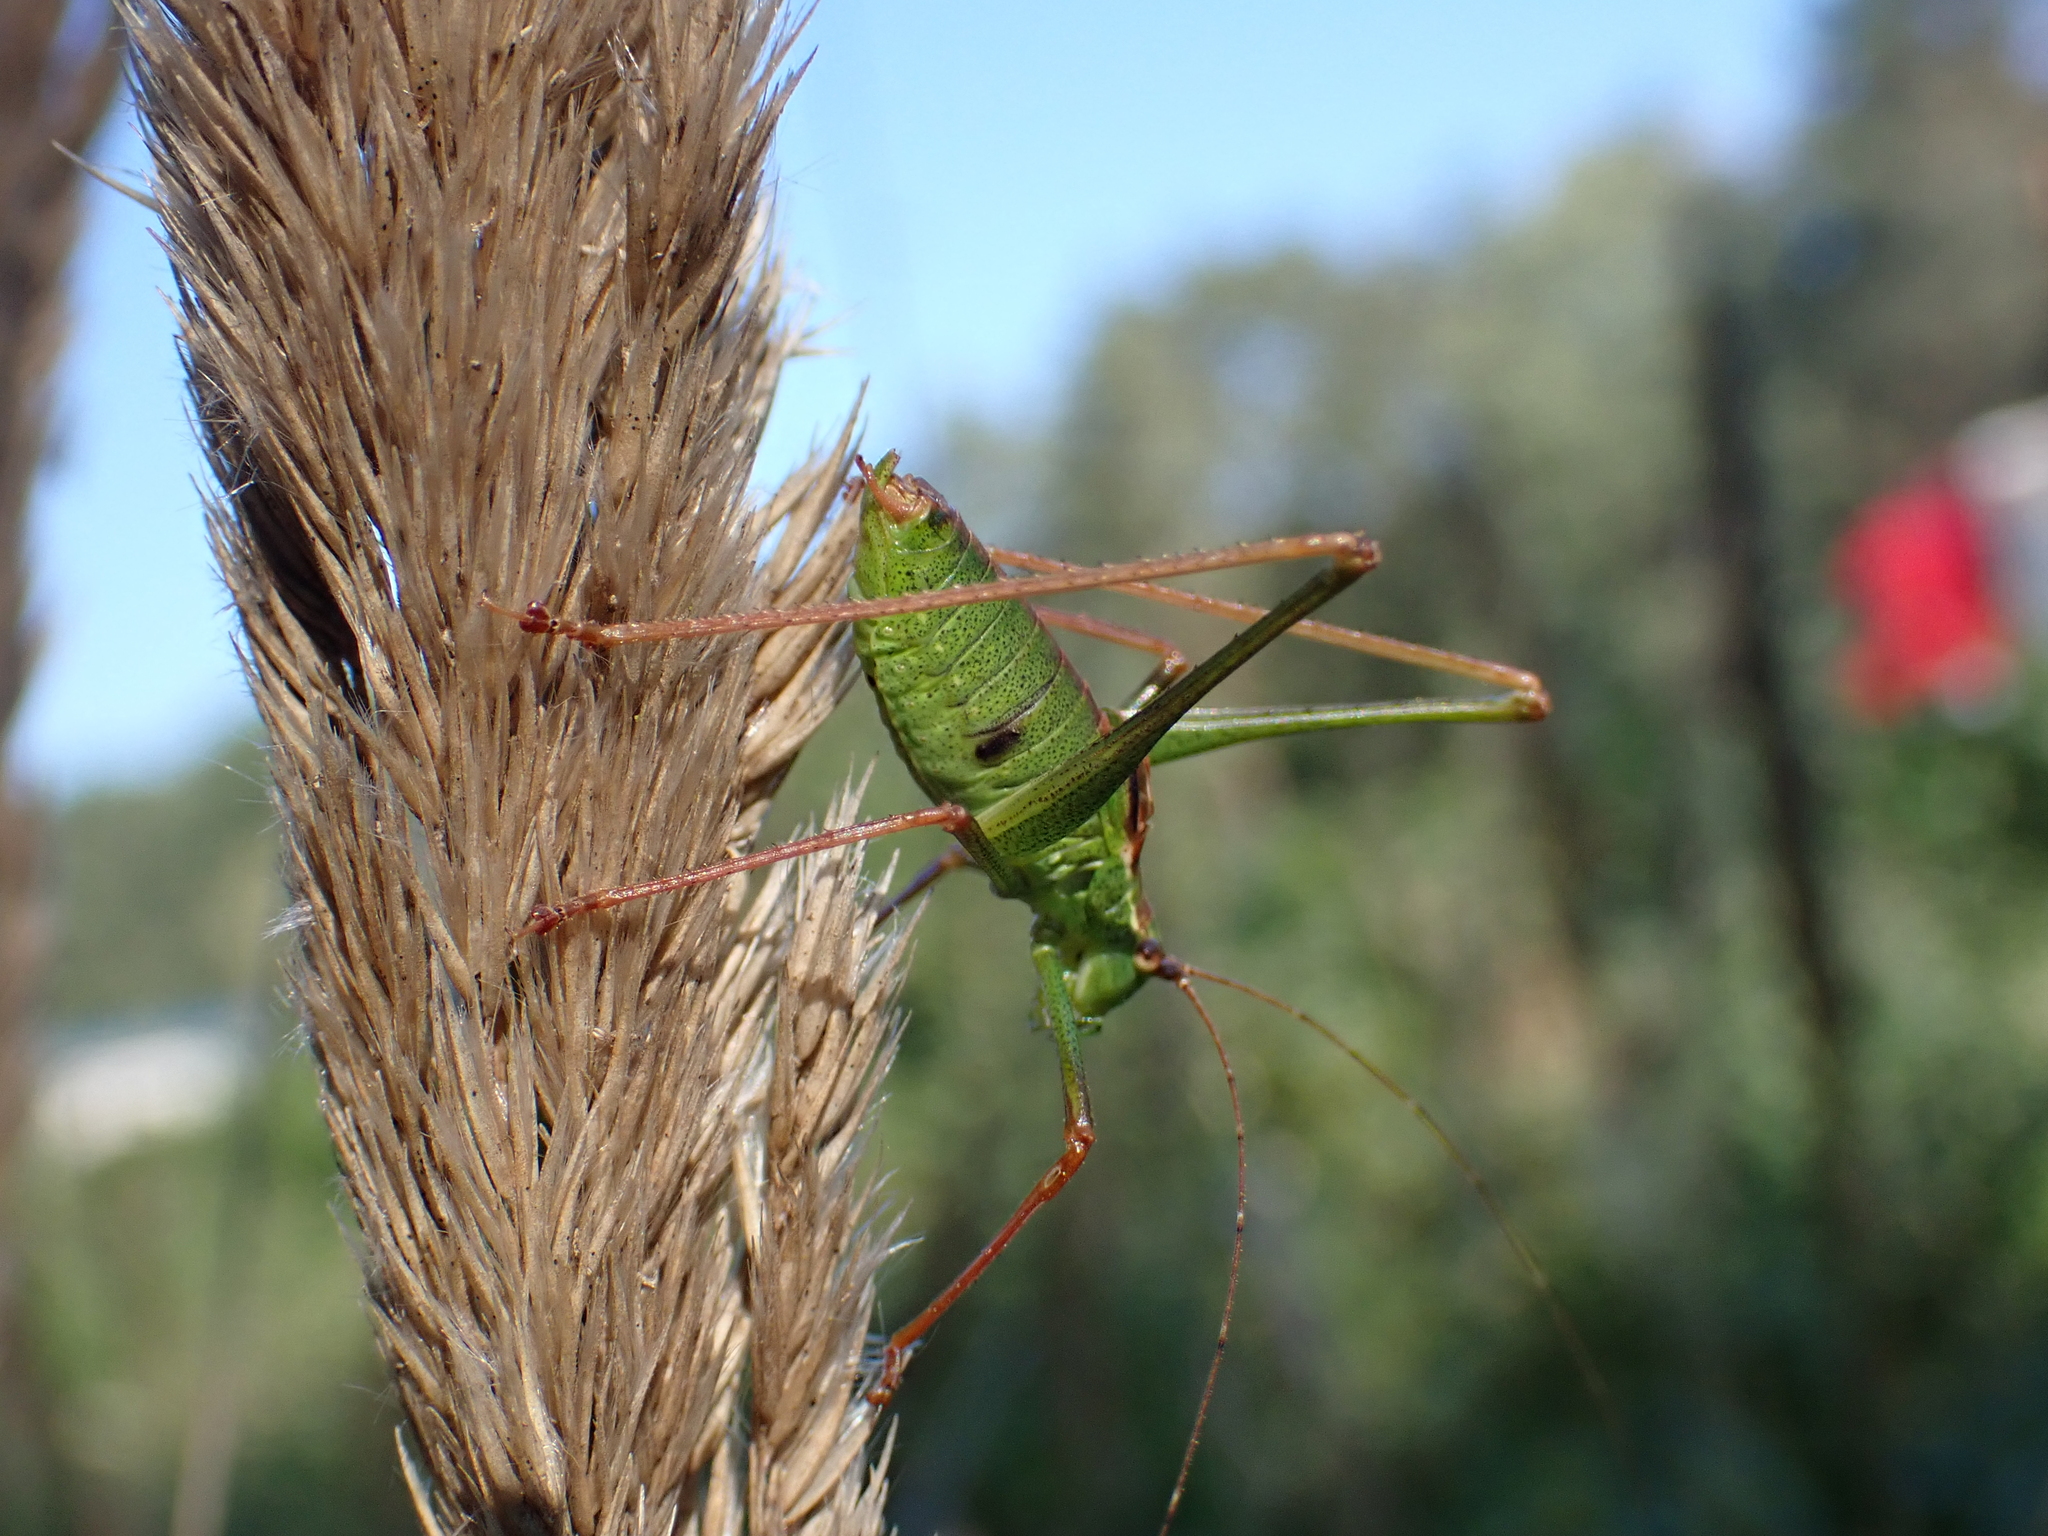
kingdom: Animalia
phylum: Arthropoda
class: Insecta
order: Orthoptera
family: Tettigoniidae
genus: Leptophyes
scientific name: Leptophyes punctatissima
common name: Speckled bush-cricket
